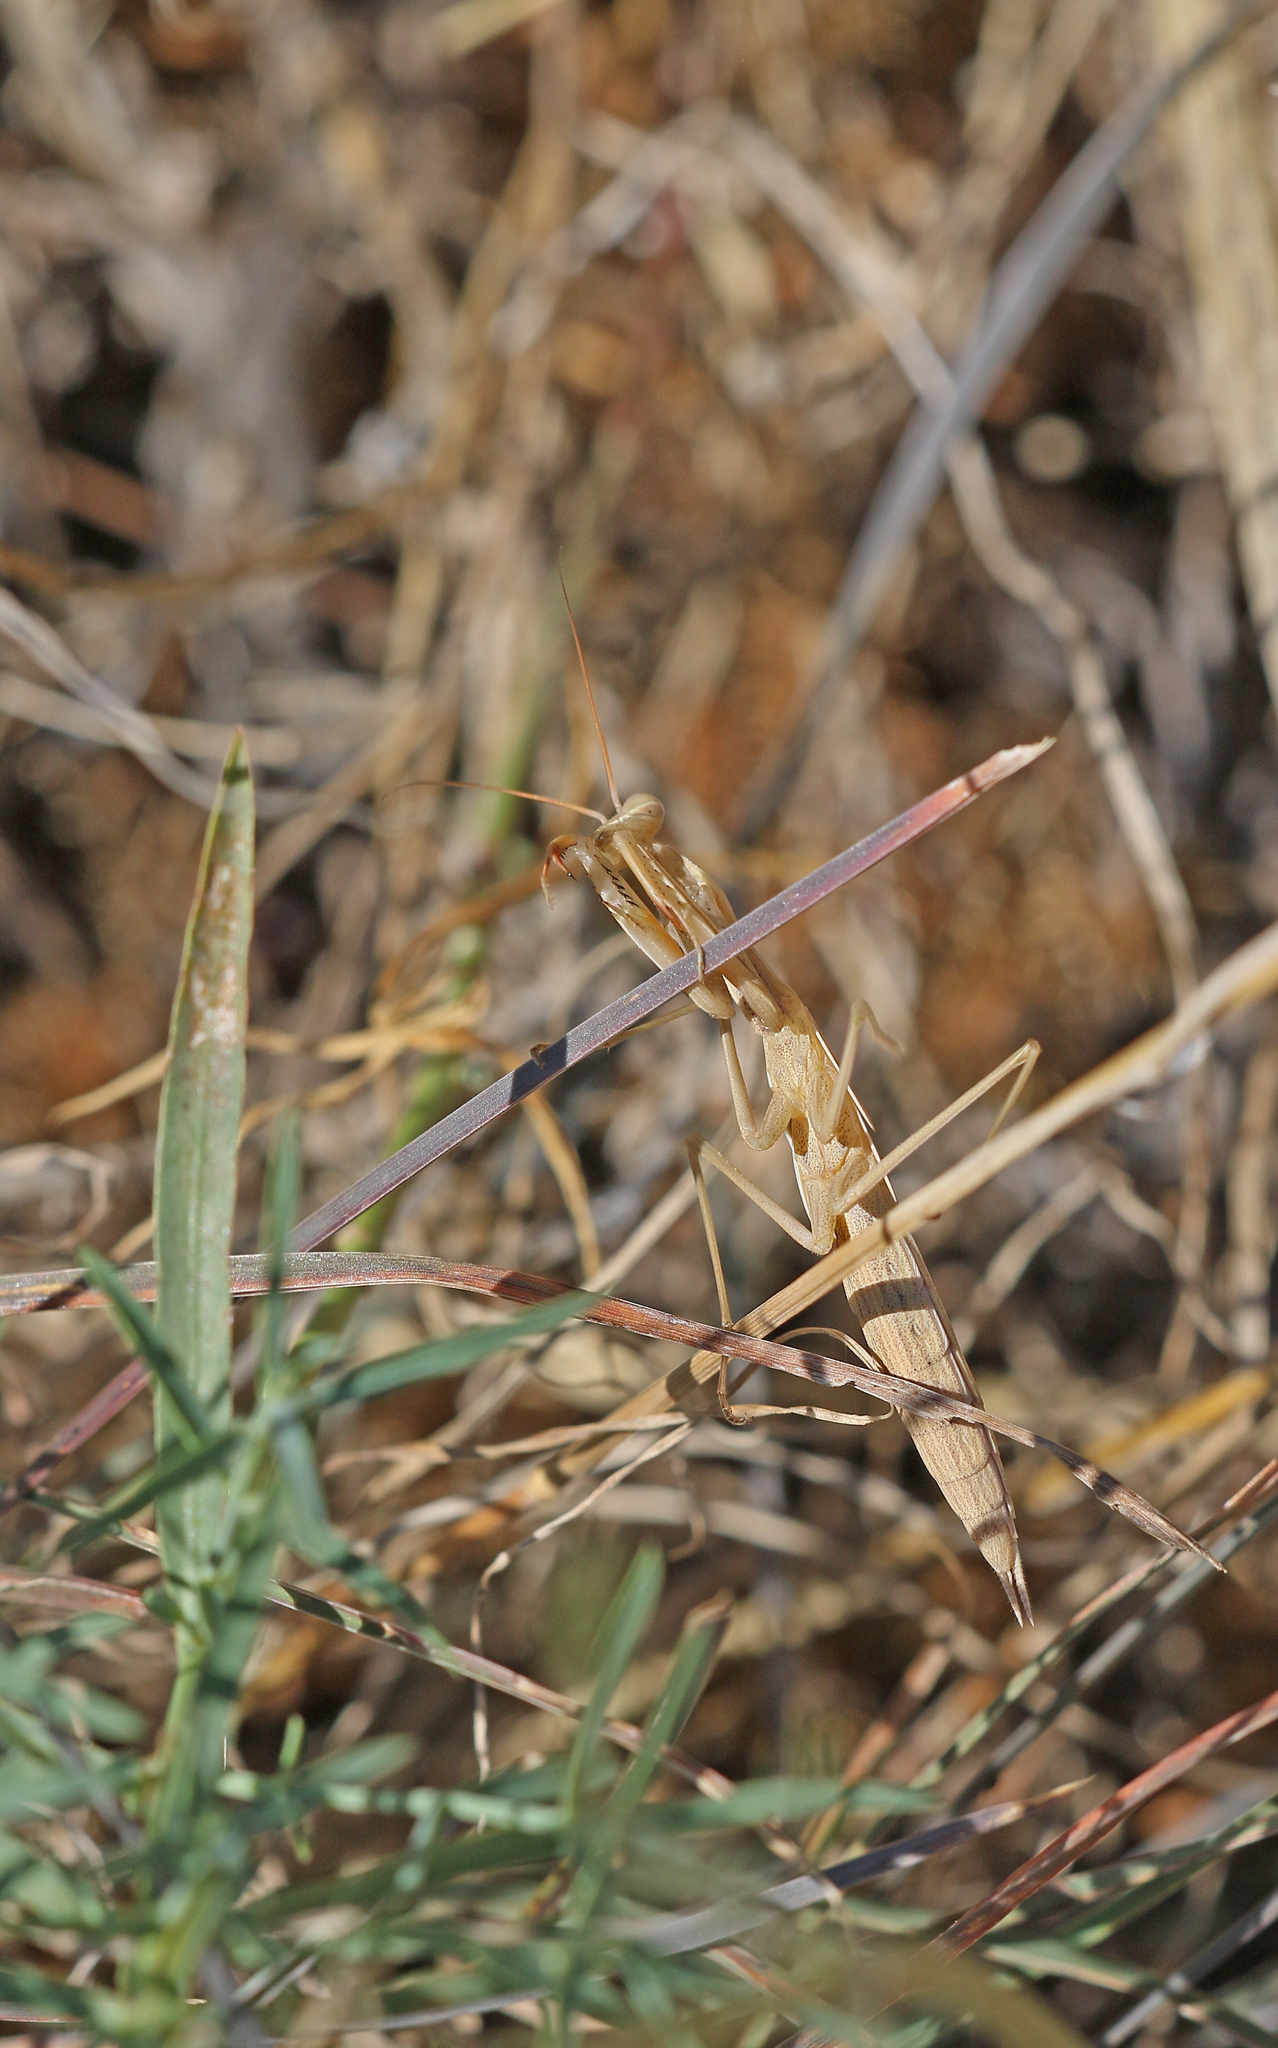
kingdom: Animalia
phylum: Arthropoda
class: Insecta
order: Mantodea
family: Mantidae
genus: Mantis
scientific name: Mantis religiosa
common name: Praying mantis
